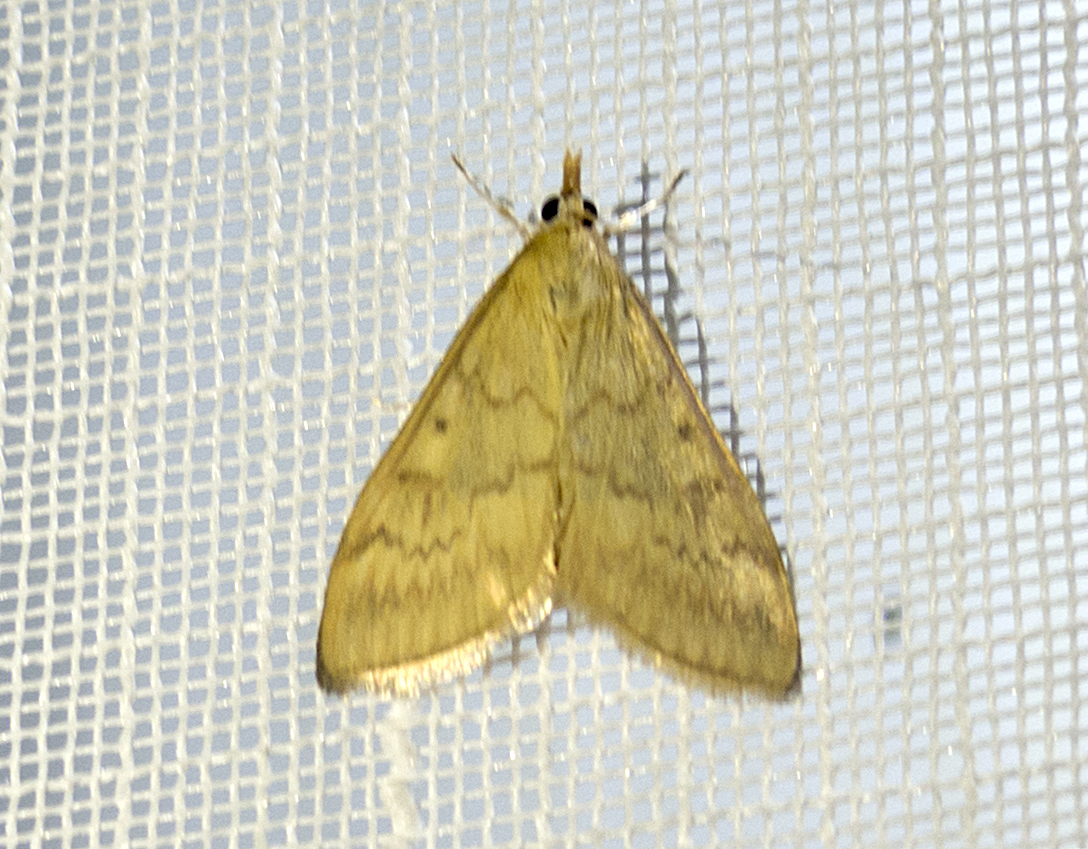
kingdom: Animalia
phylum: Arthropoda
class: Insecta
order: Lepidoptera
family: Crambidae
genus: Ostrinia
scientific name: Ostrinia nubilalis
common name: European corn borer
